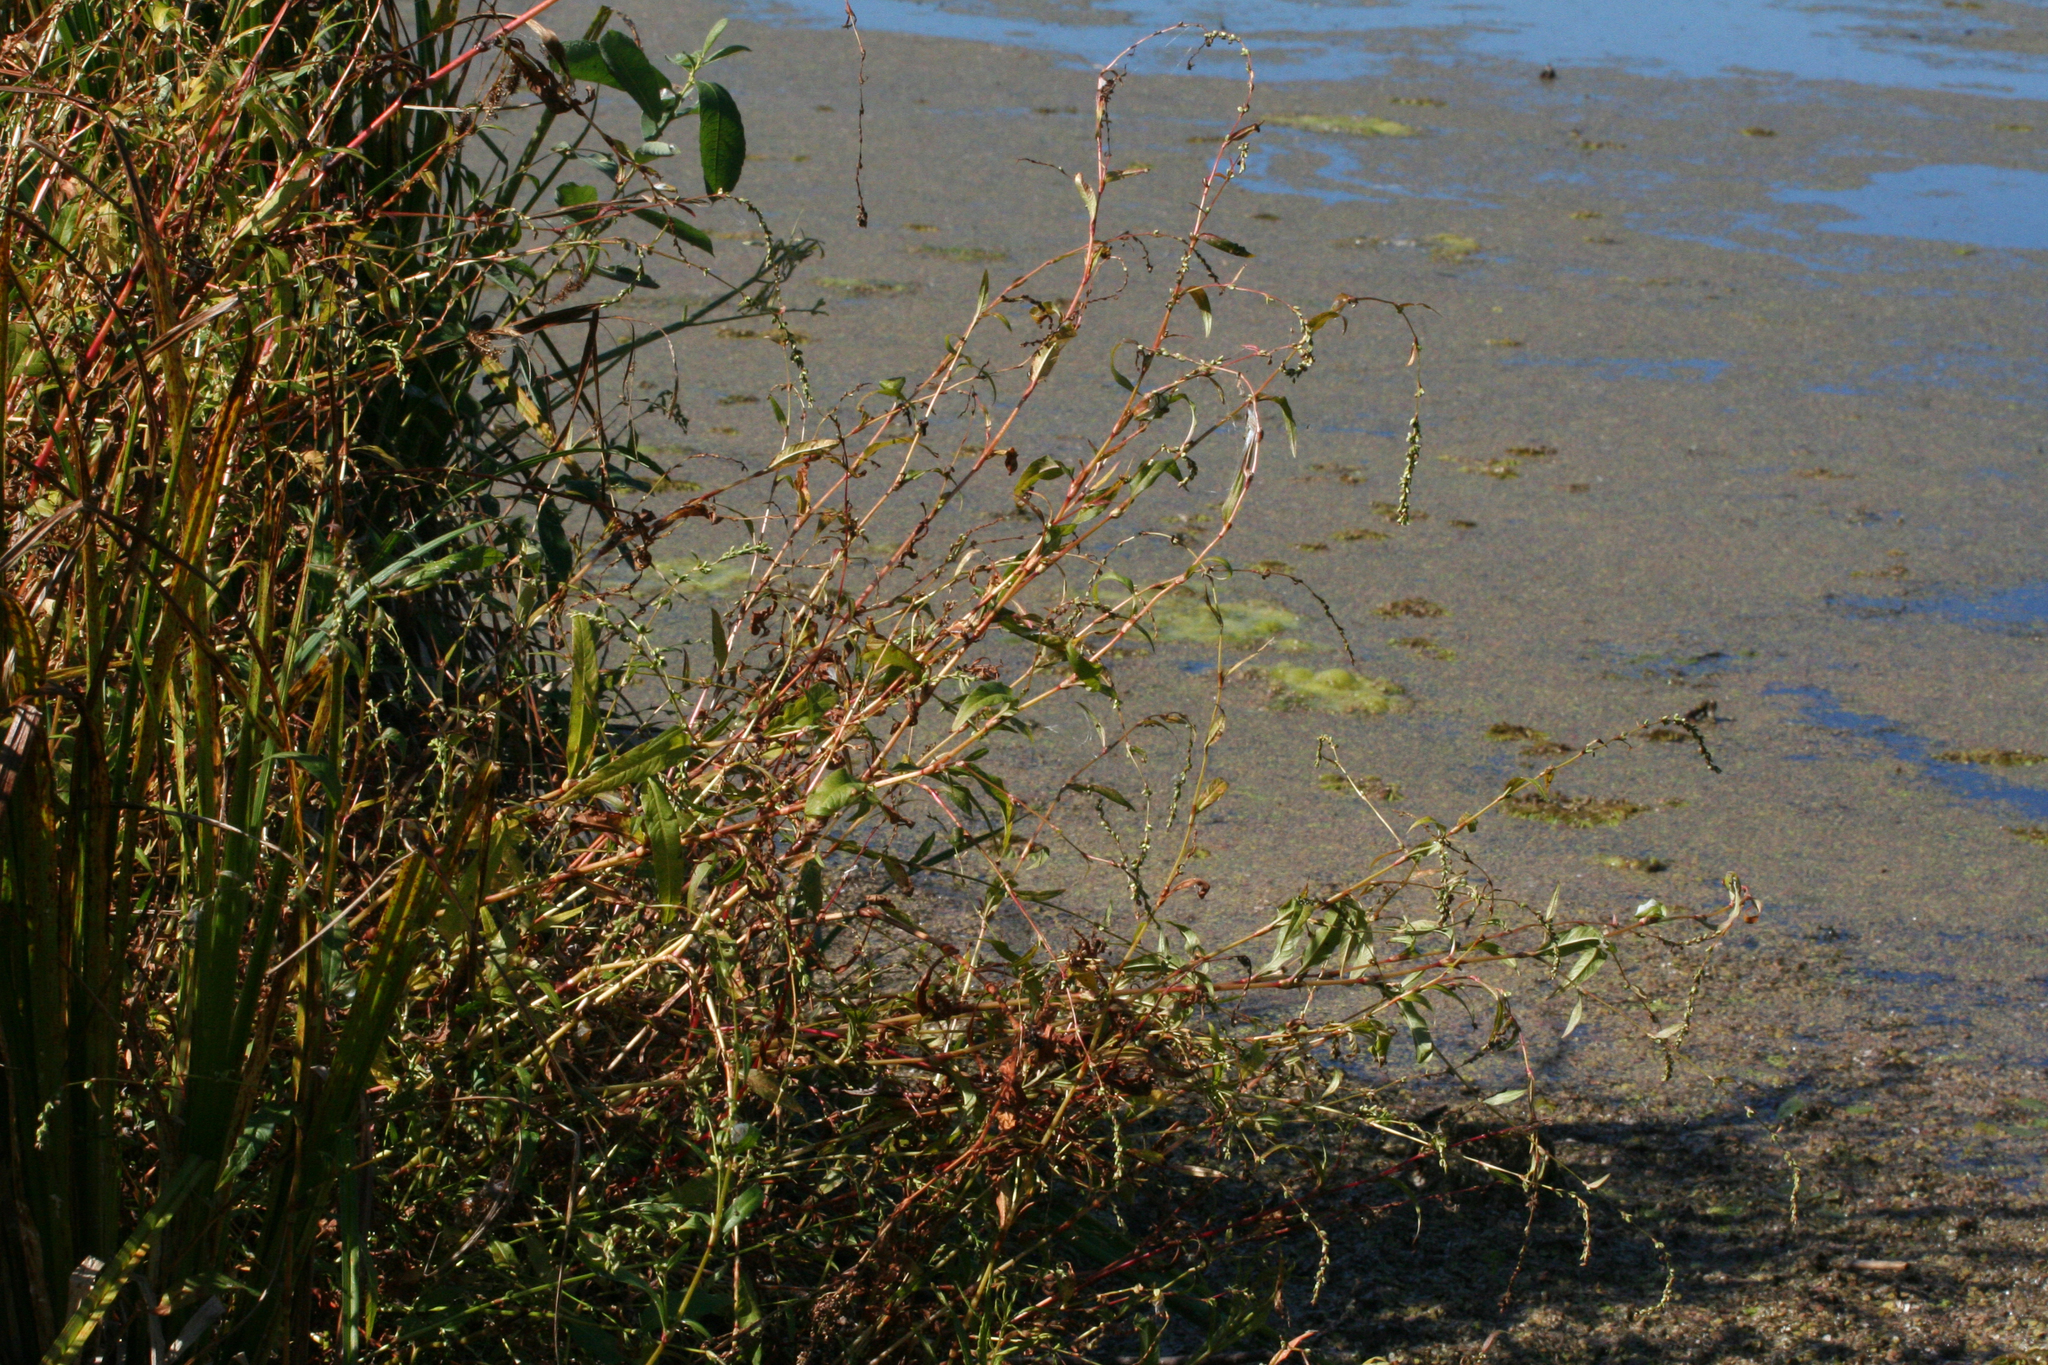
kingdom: Plantae
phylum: Tracheophyta
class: Magnoliopsida
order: Caryophyllales
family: Polygonaceae
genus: Persicaria
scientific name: Persicaria hydropiper
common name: Water-pepper
